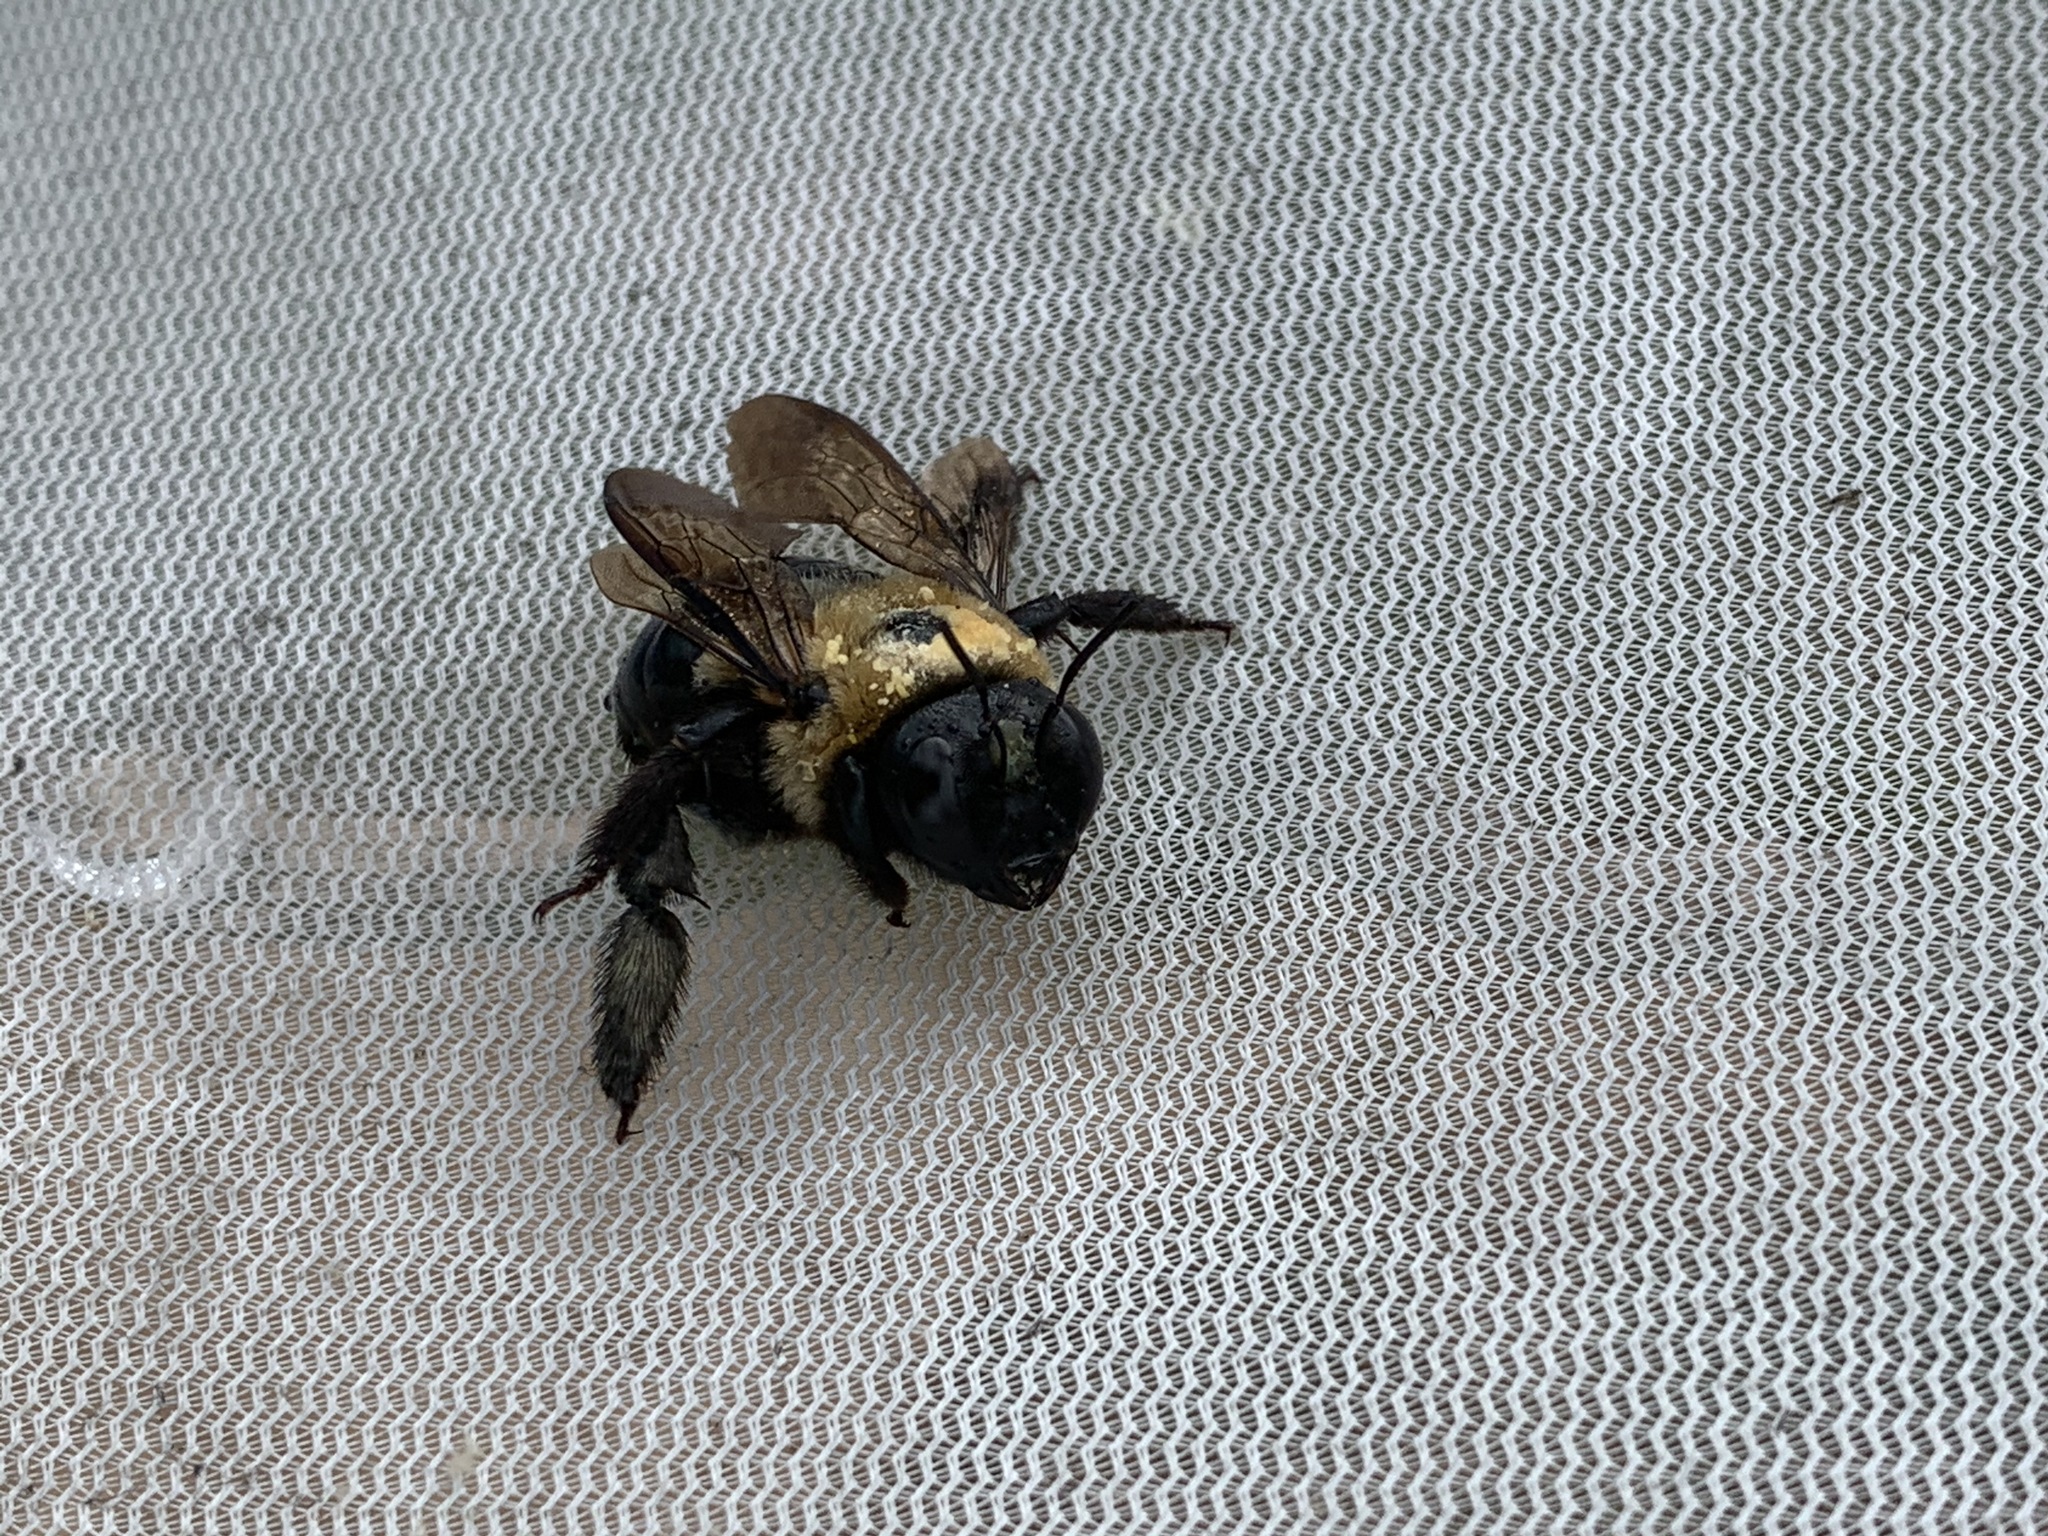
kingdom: Animalia
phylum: Arthropoda
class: Insecta
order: Hymenoptera
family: Apidae
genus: Xylocopa
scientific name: Xylocopa virginica
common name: Carpenter bee
